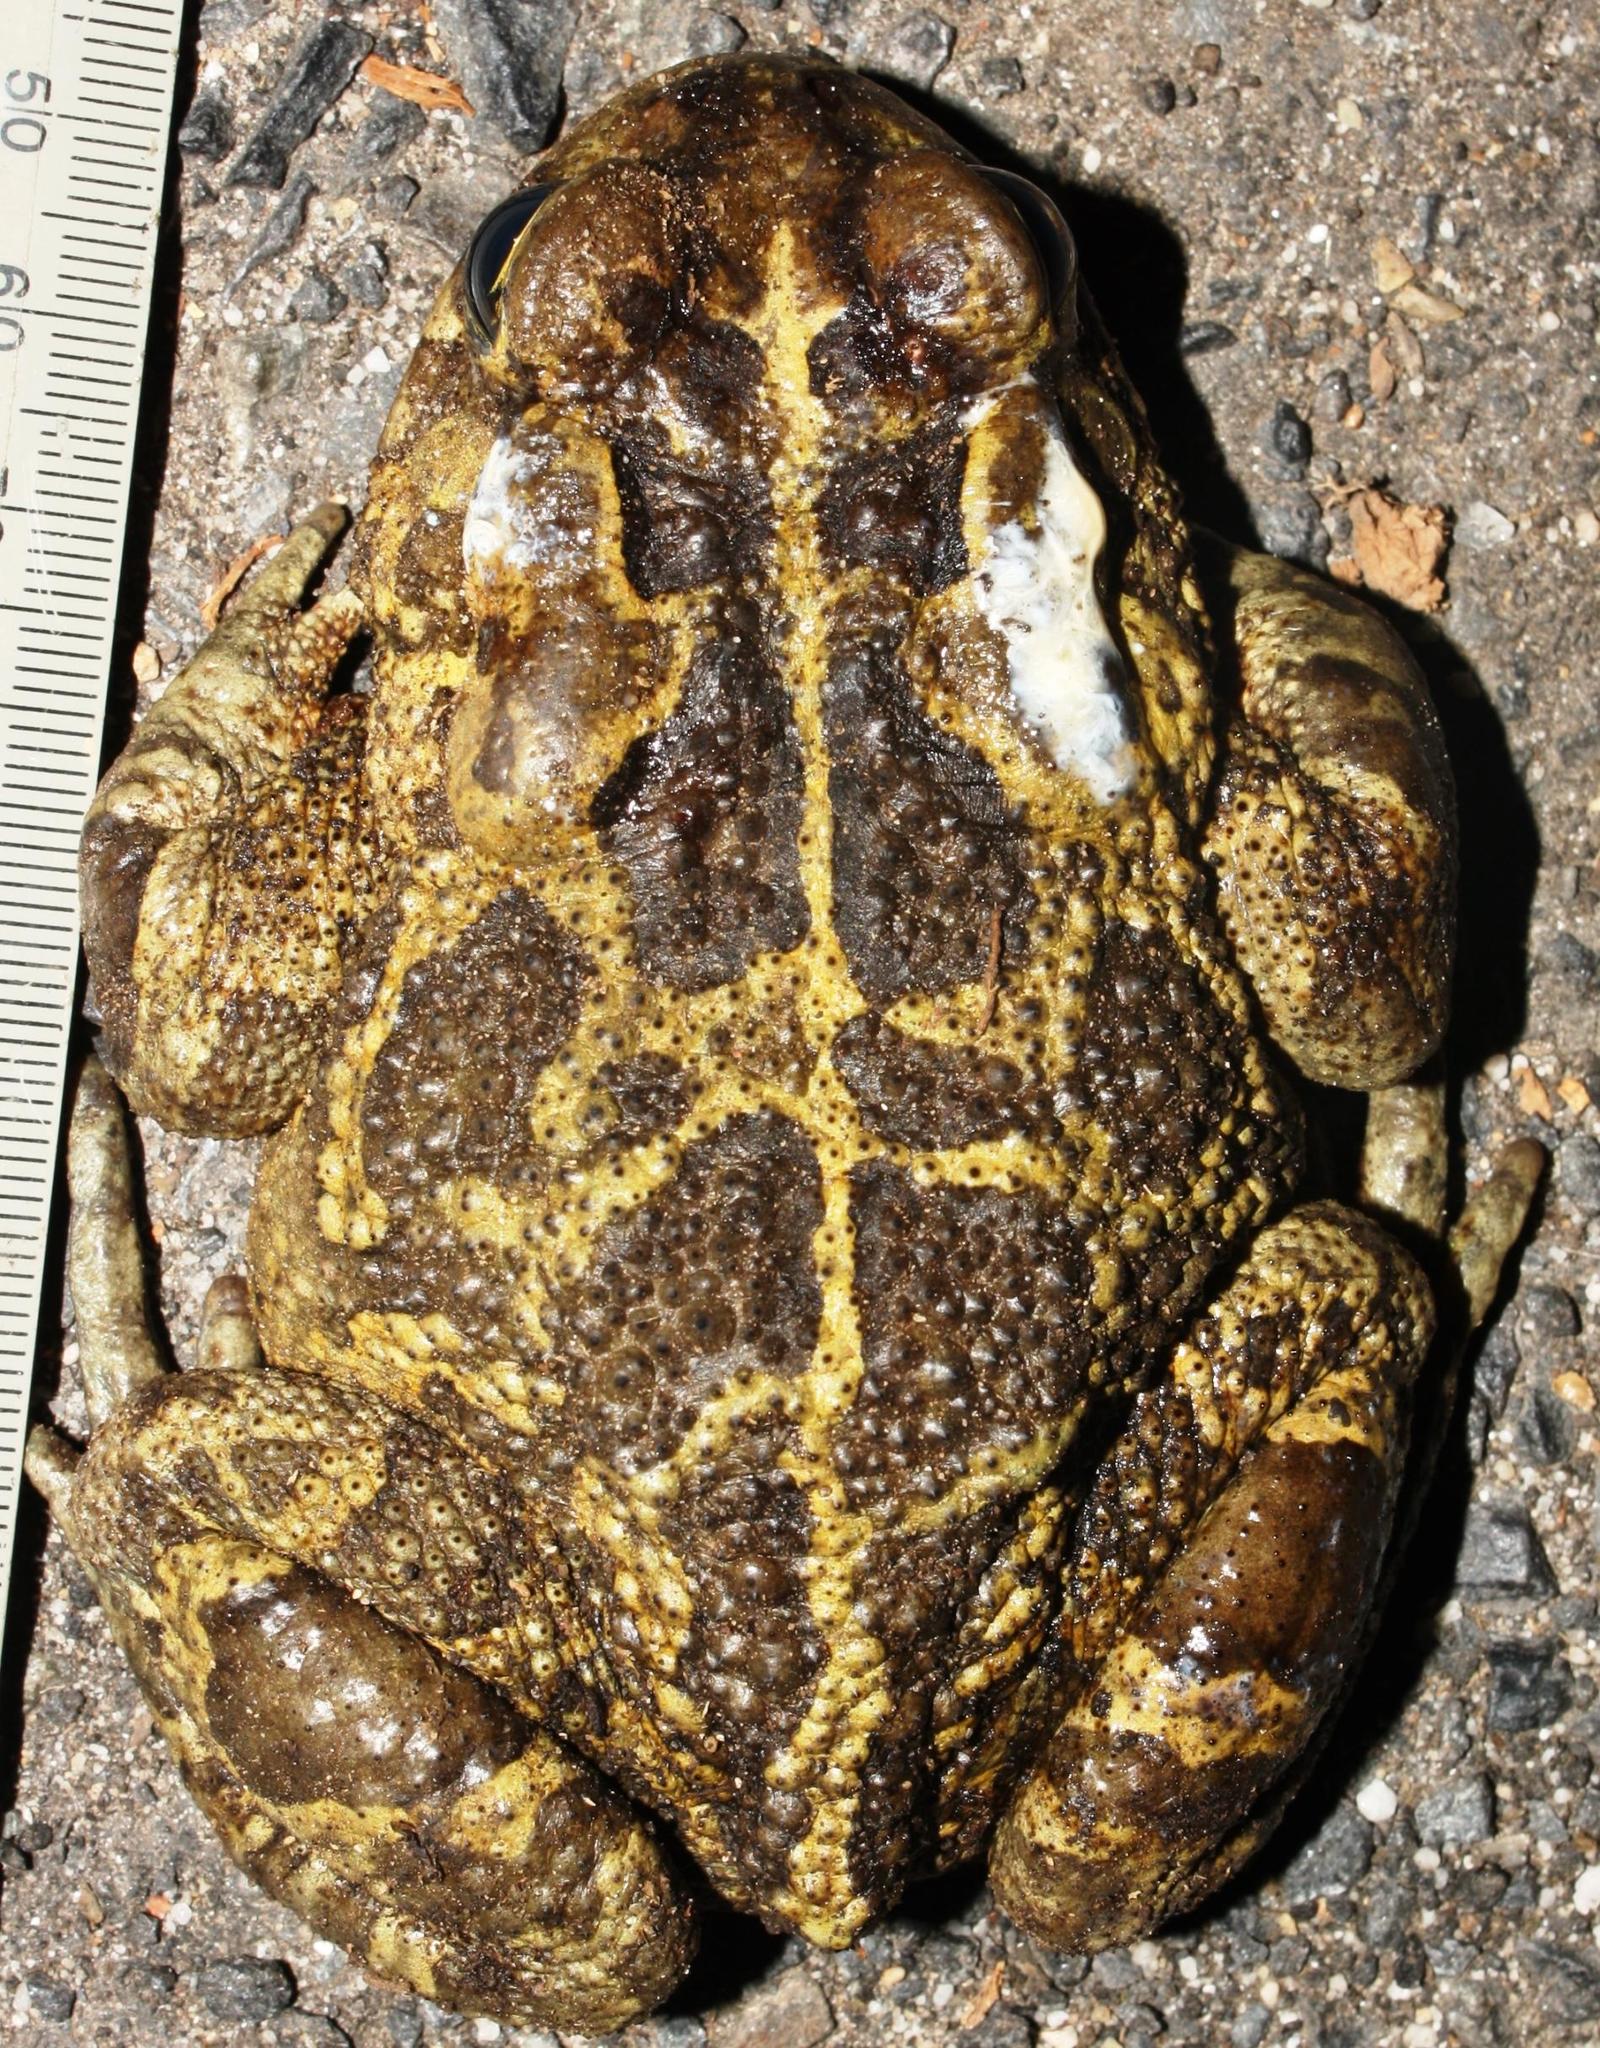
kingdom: Animalia
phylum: Chordata
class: Amphibia
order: Anura
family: Bufonidae
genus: Sclerophrys
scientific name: Sclerophrys pantherina
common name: Panther toad
